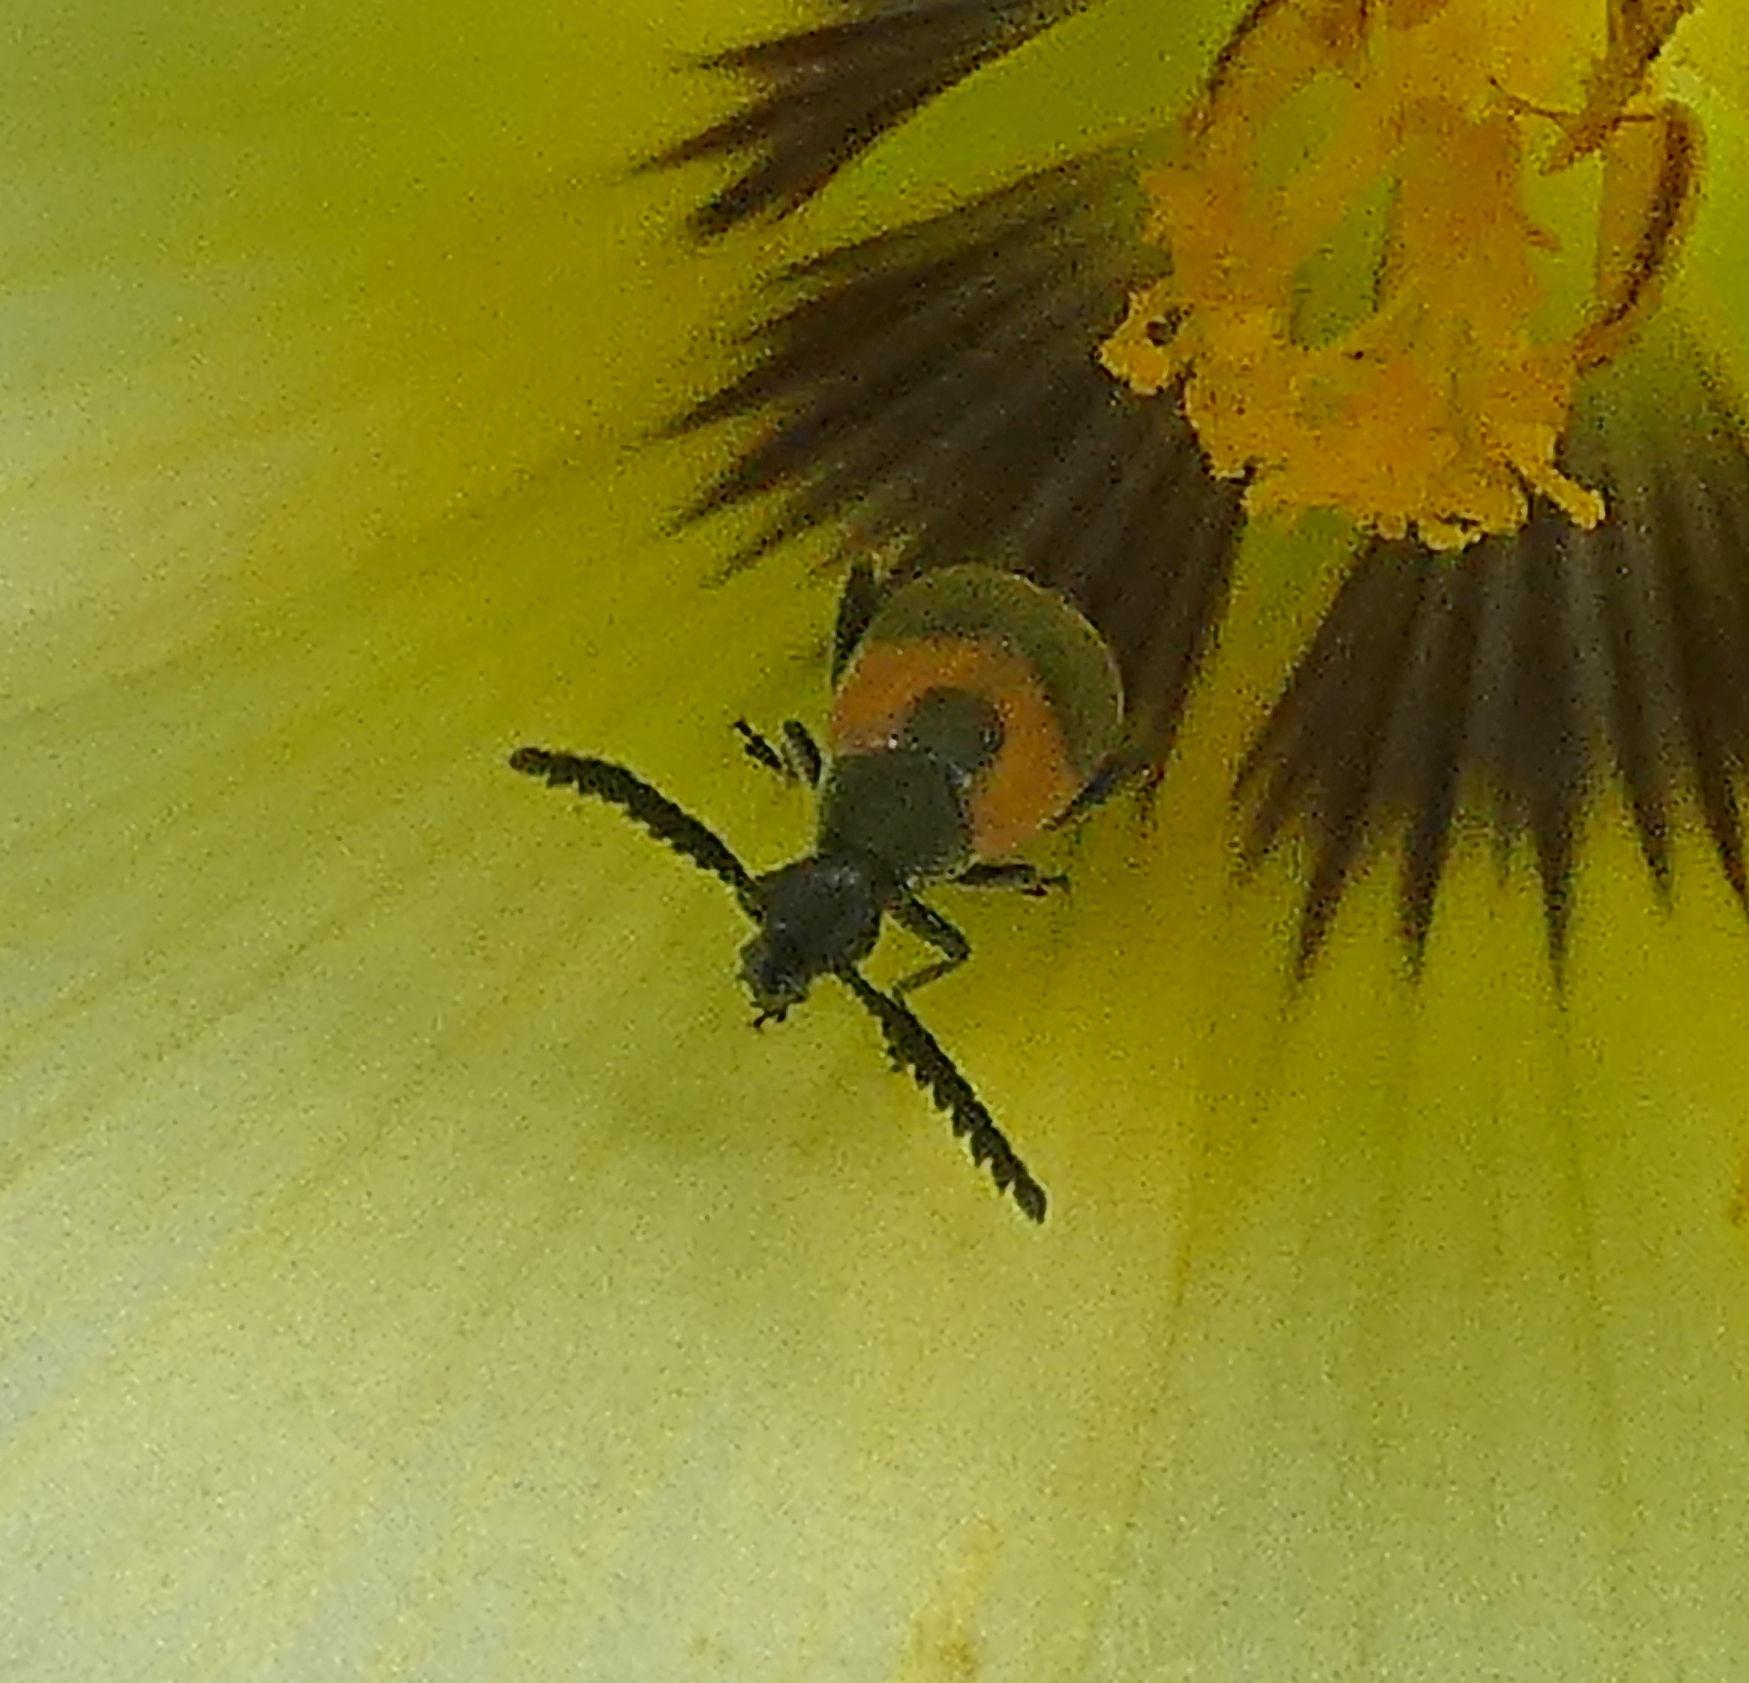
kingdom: Animalia
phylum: Arthropoda
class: Insecta
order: Coleoptera
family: Chrysomelidae
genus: Eubaptus
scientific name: Eubaptus
